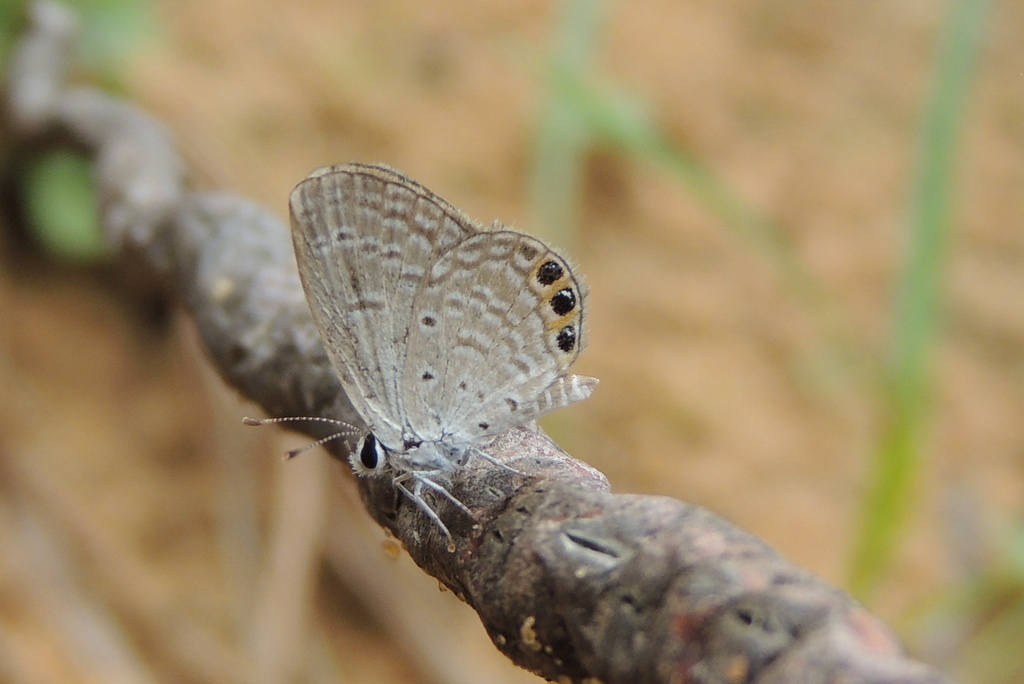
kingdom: Animalia
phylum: Arthropoda
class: Insecta
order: Lepidoptera
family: Lycaenidae
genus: Freyeria
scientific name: Freyeria trochylus
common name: Grass jewel
